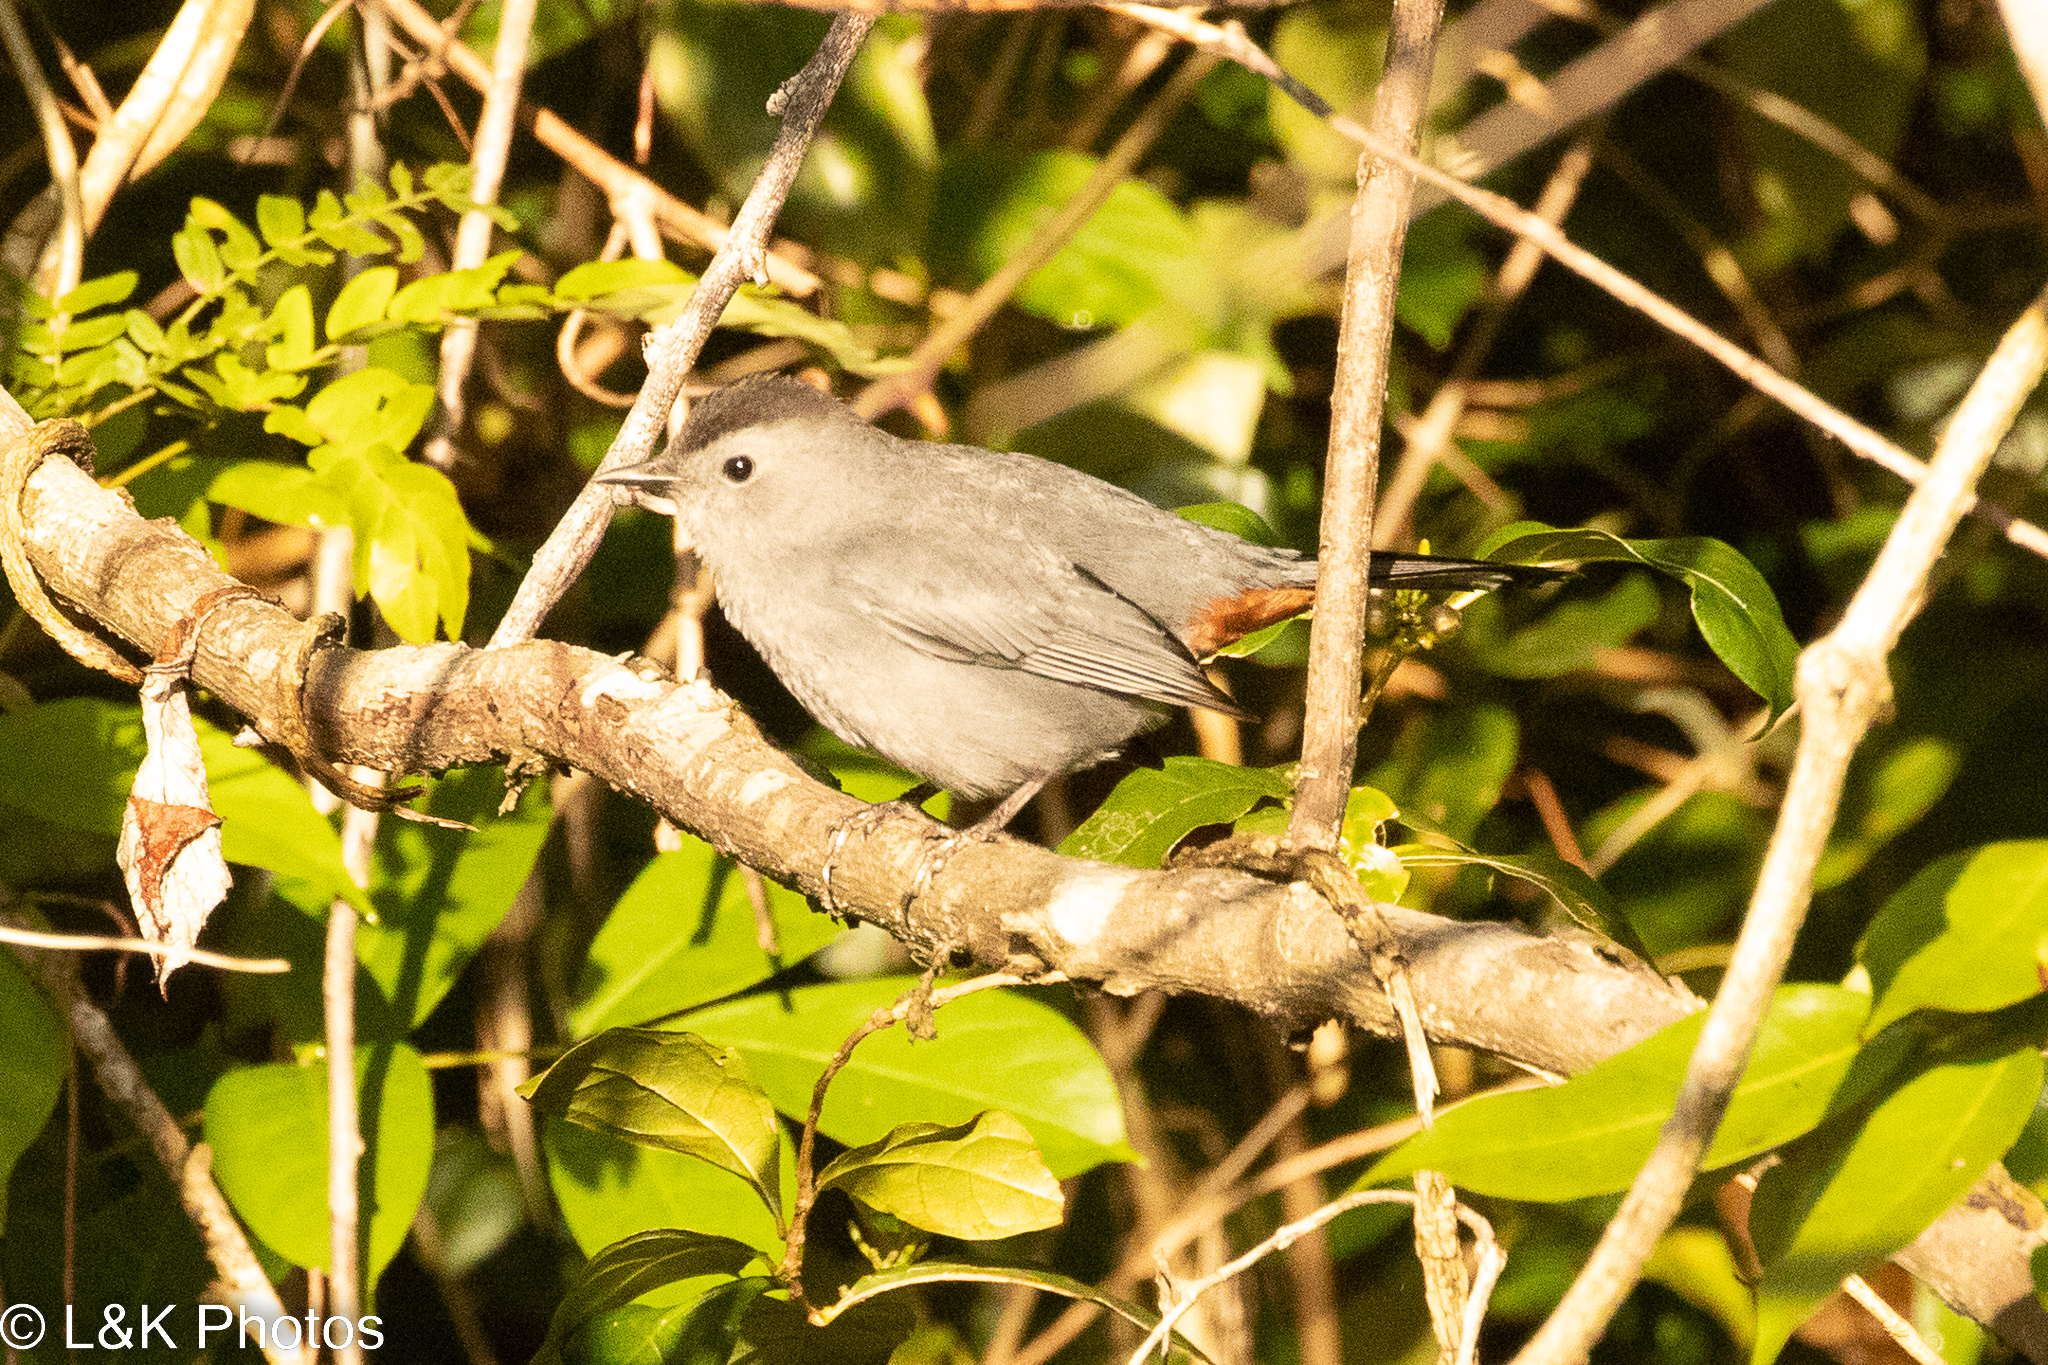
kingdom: Animalia
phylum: Chordata
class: Aves
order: Passeriformes
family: Mimidae
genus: Dumetella
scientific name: Dumetella carolinensis
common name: Gray catbird
